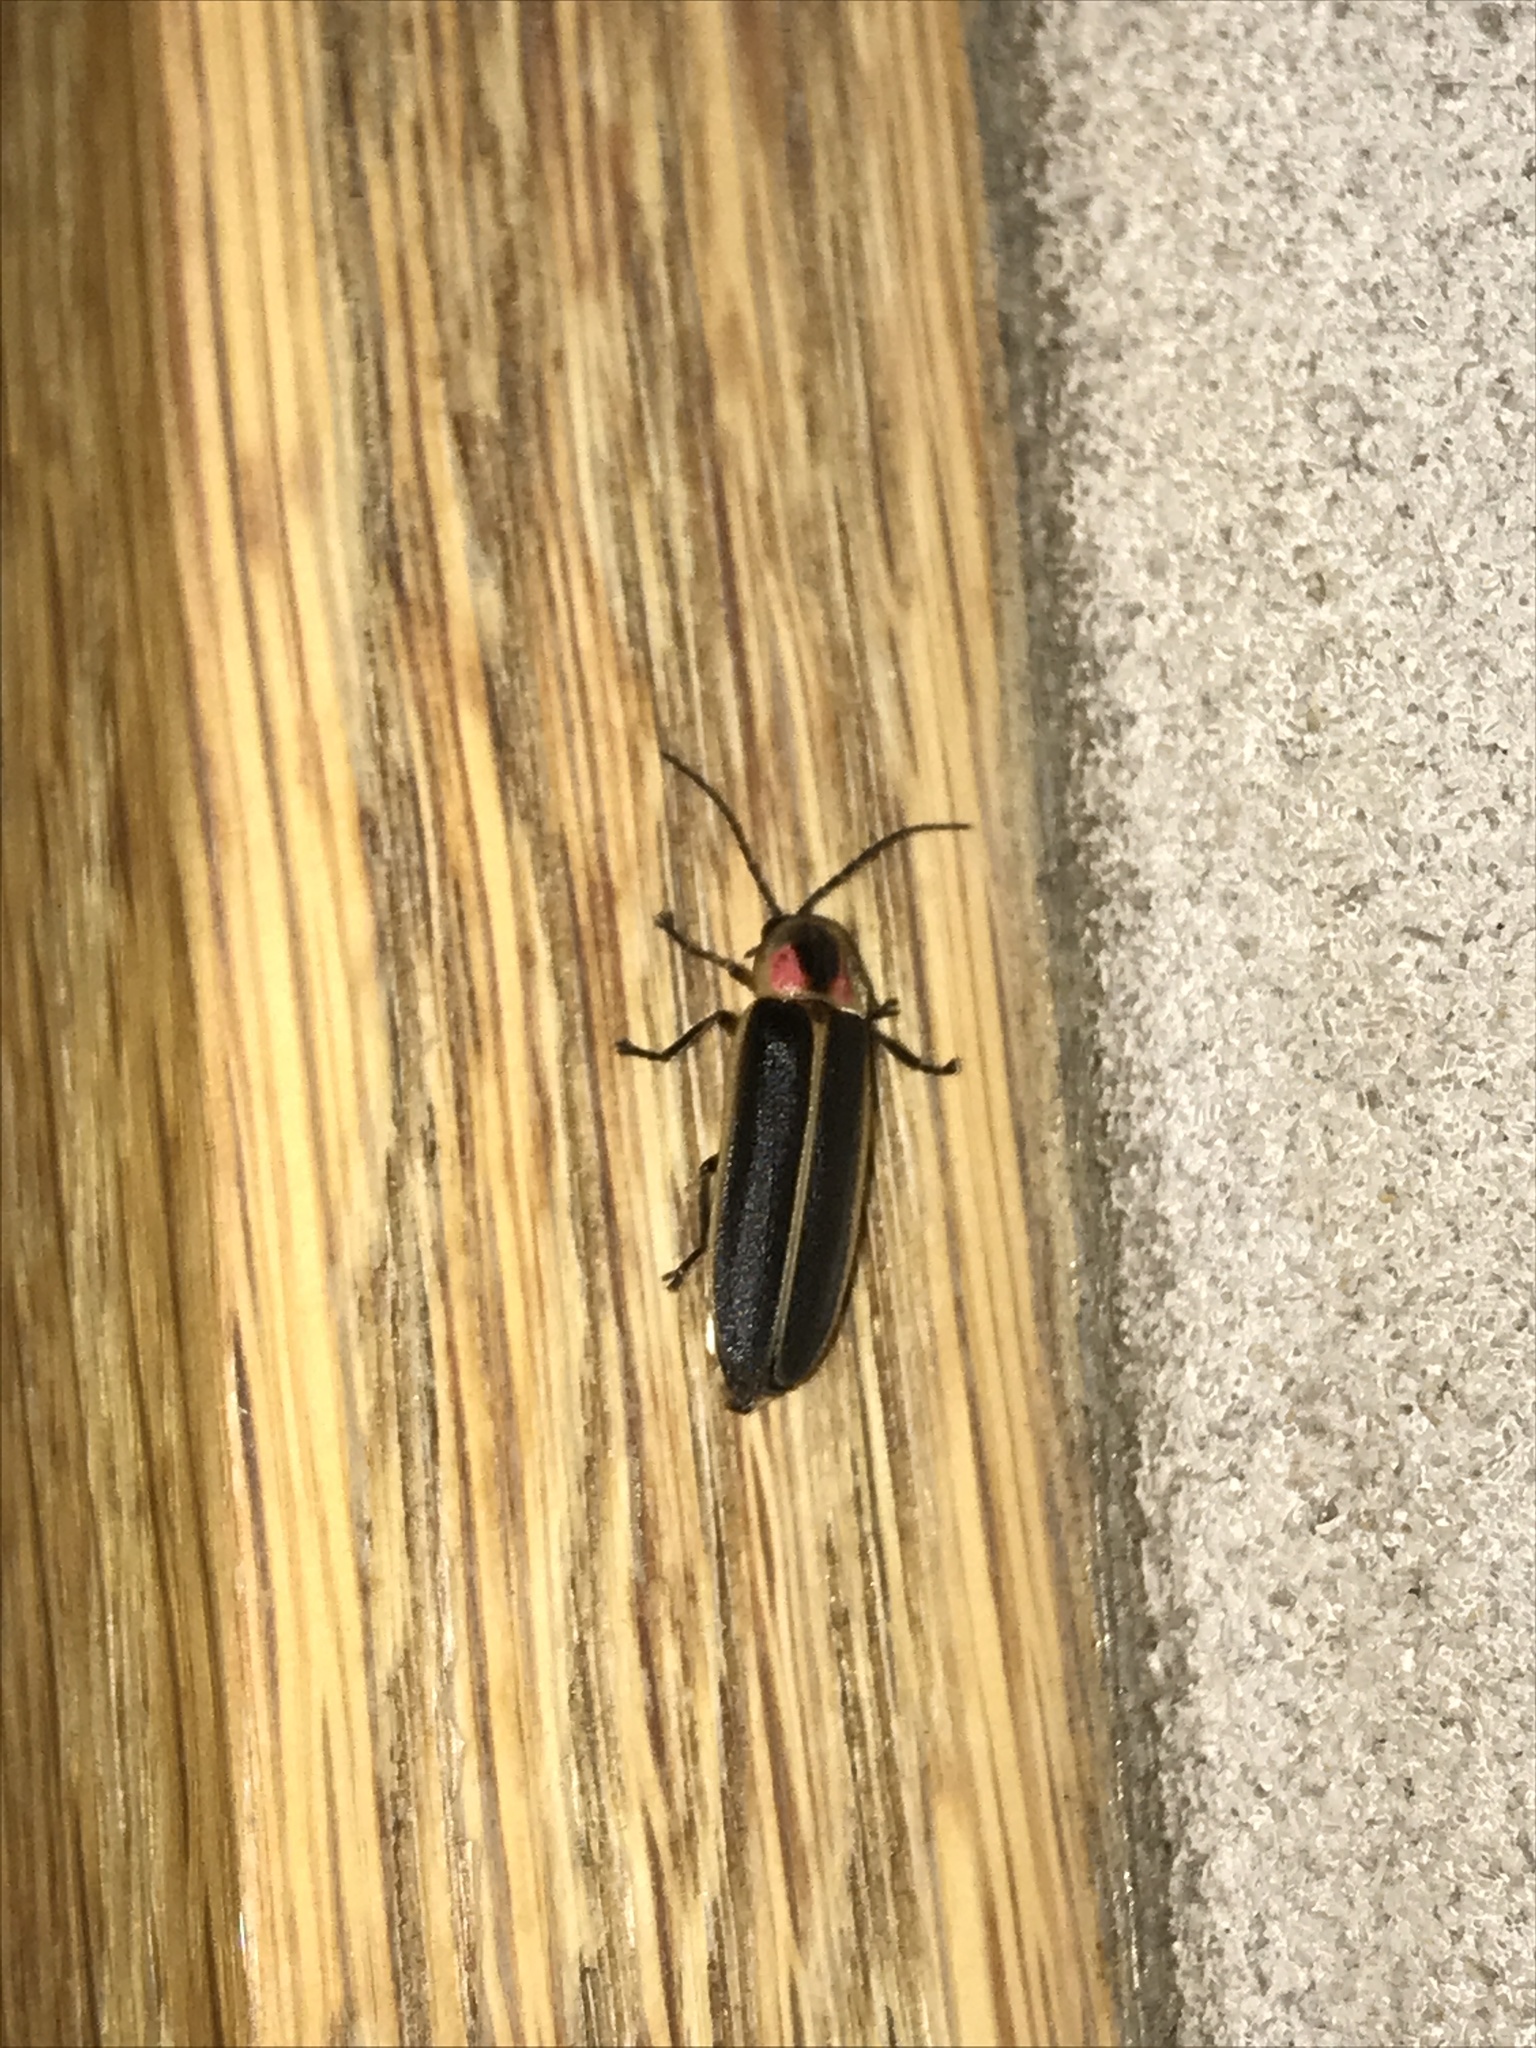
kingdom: Animalia
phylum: Arthropoda
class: Insecta
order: Coleoptera
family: Lampyridae
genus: Photinus
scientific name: Photinus pyralis
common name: Big dipper firefly
